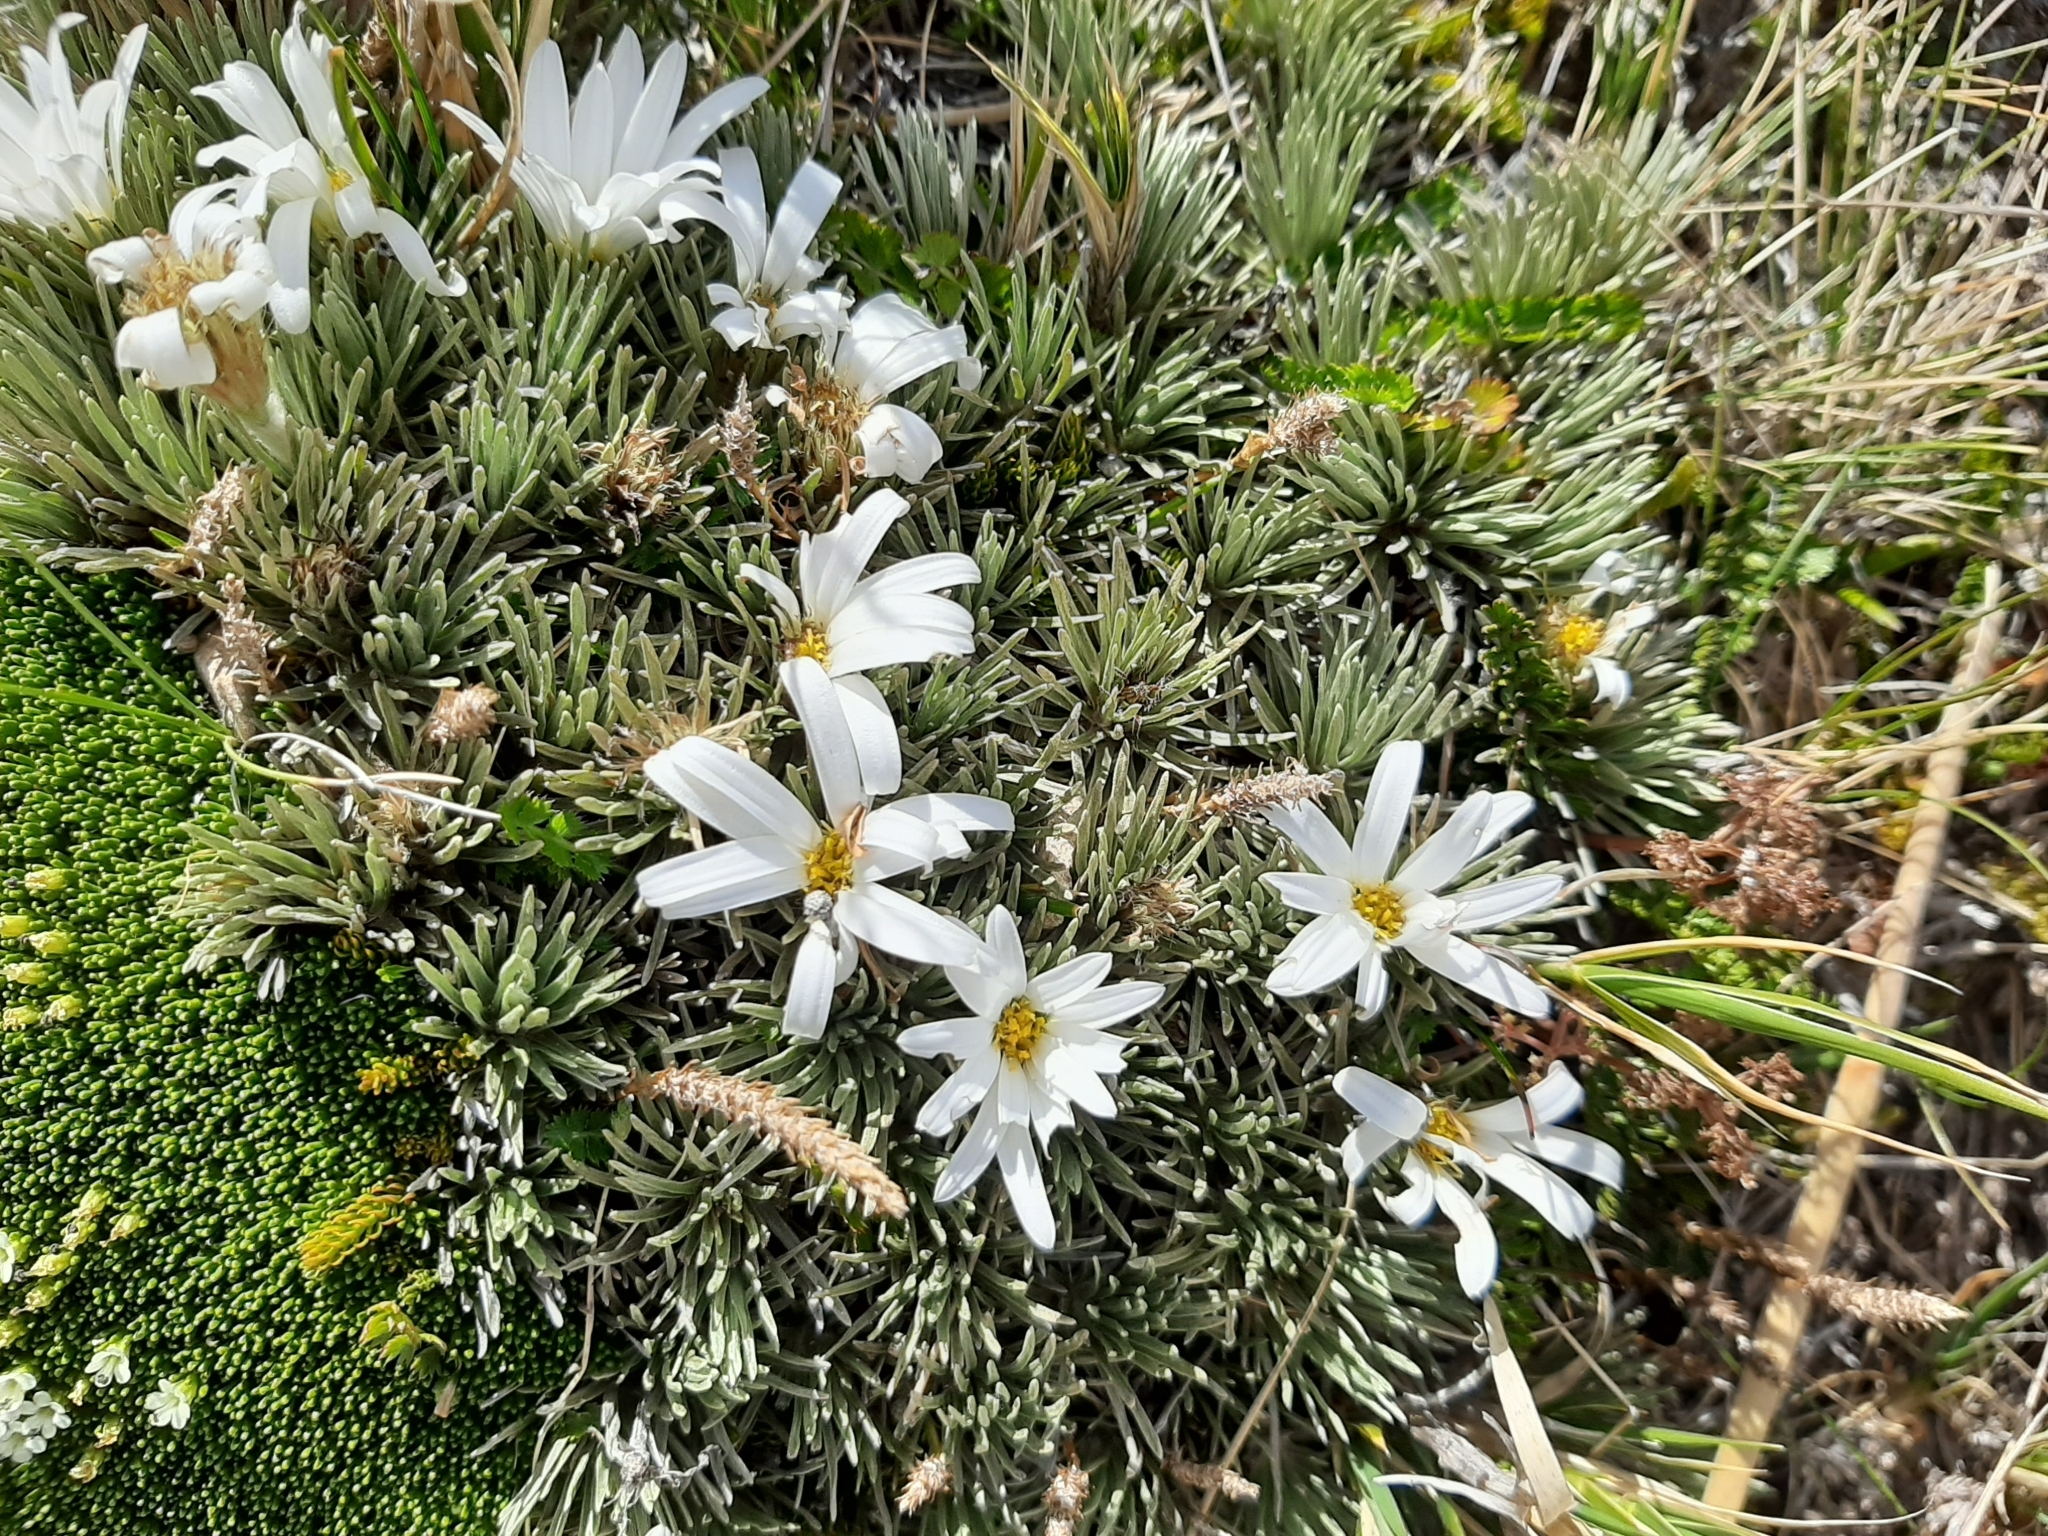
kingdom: Plantae
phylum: Tracheophyta
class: Magnoliopsida
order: Asterales
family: Asteraceae
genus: Celmisia
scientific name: Celmisia sessiliflora
